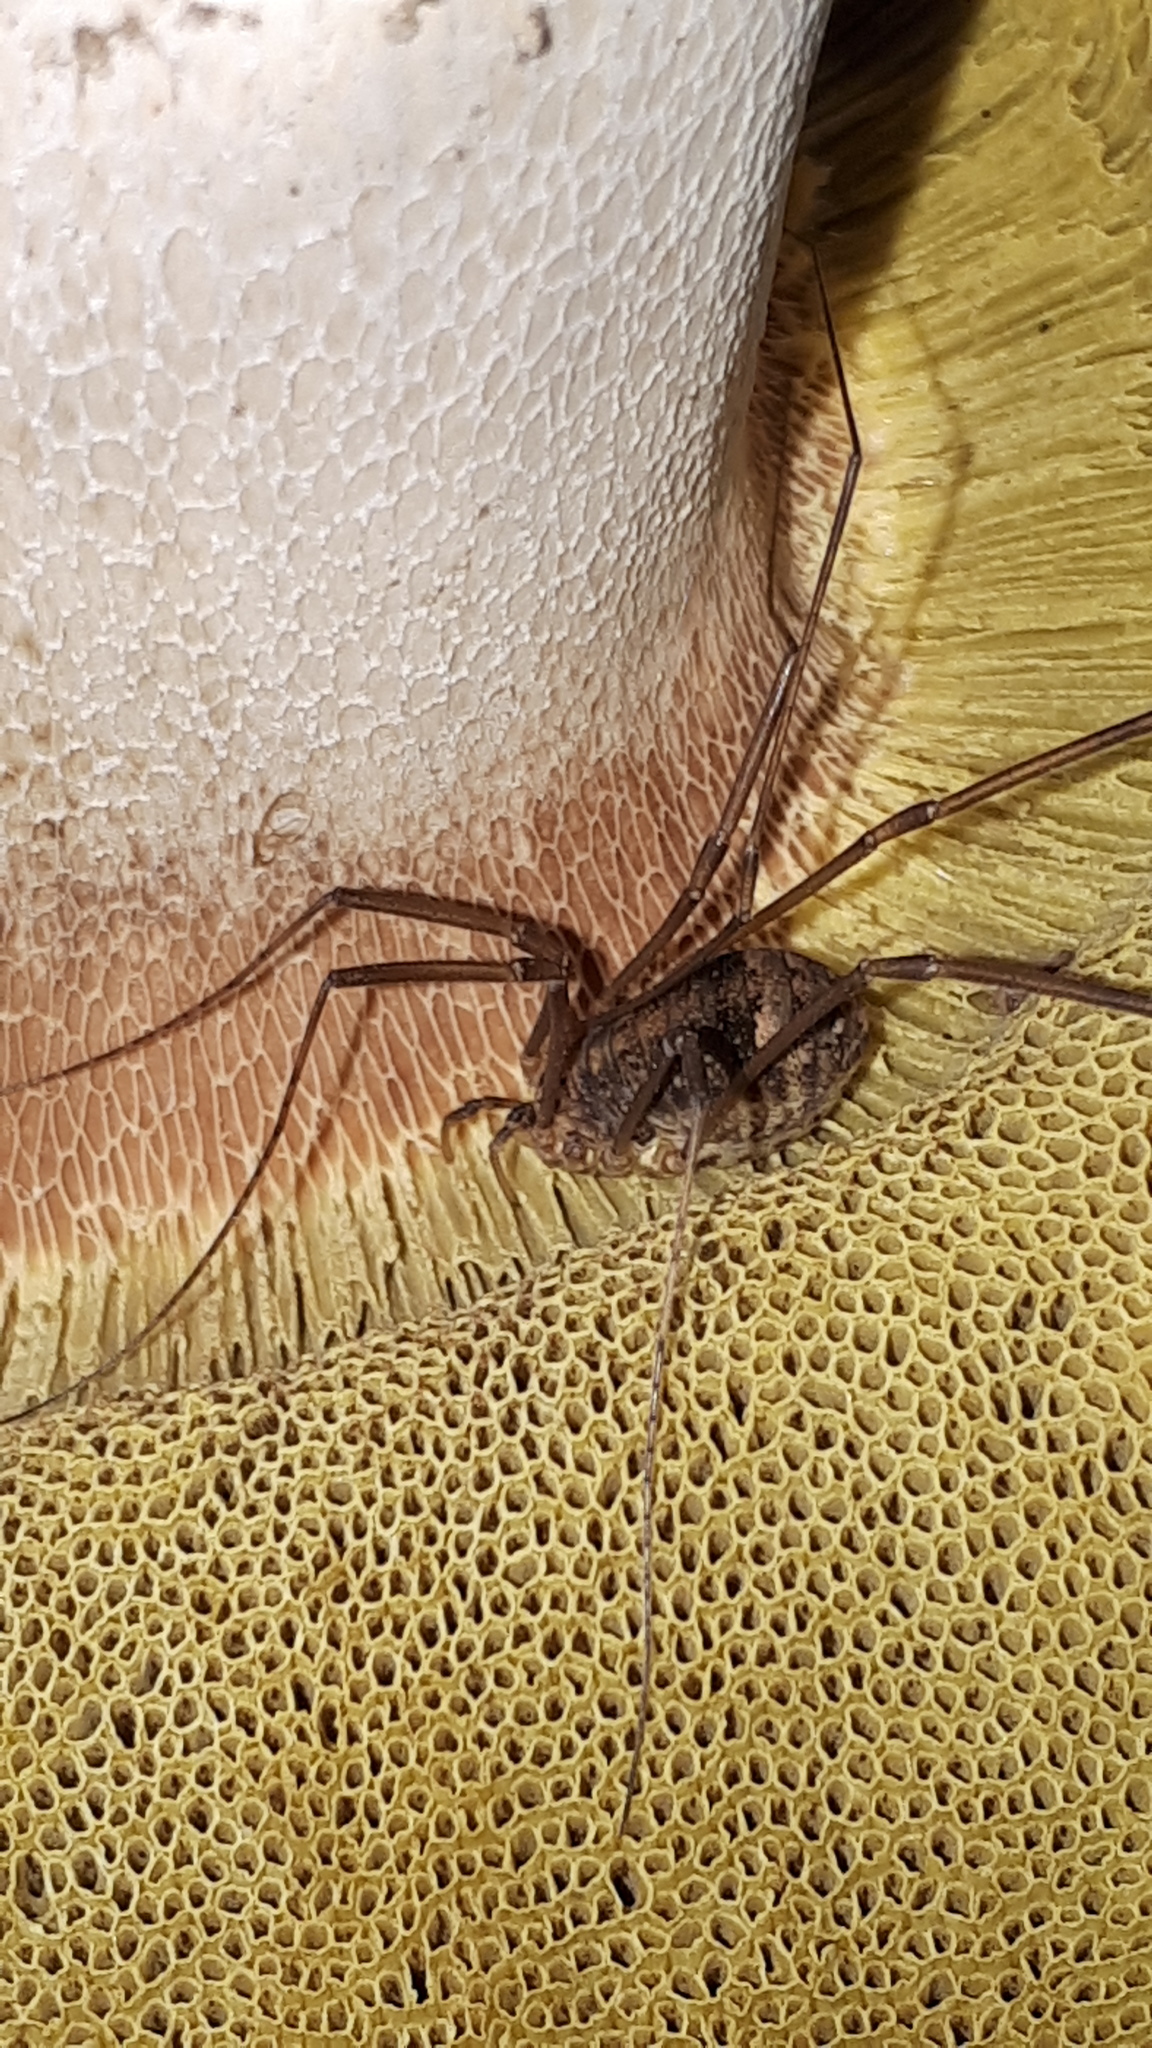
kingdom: Animalia
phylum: Arthropoda
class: Arachnida
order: Opiliones
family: Sclerosomatidae
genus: Nelima
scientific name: Nelima sempronii
